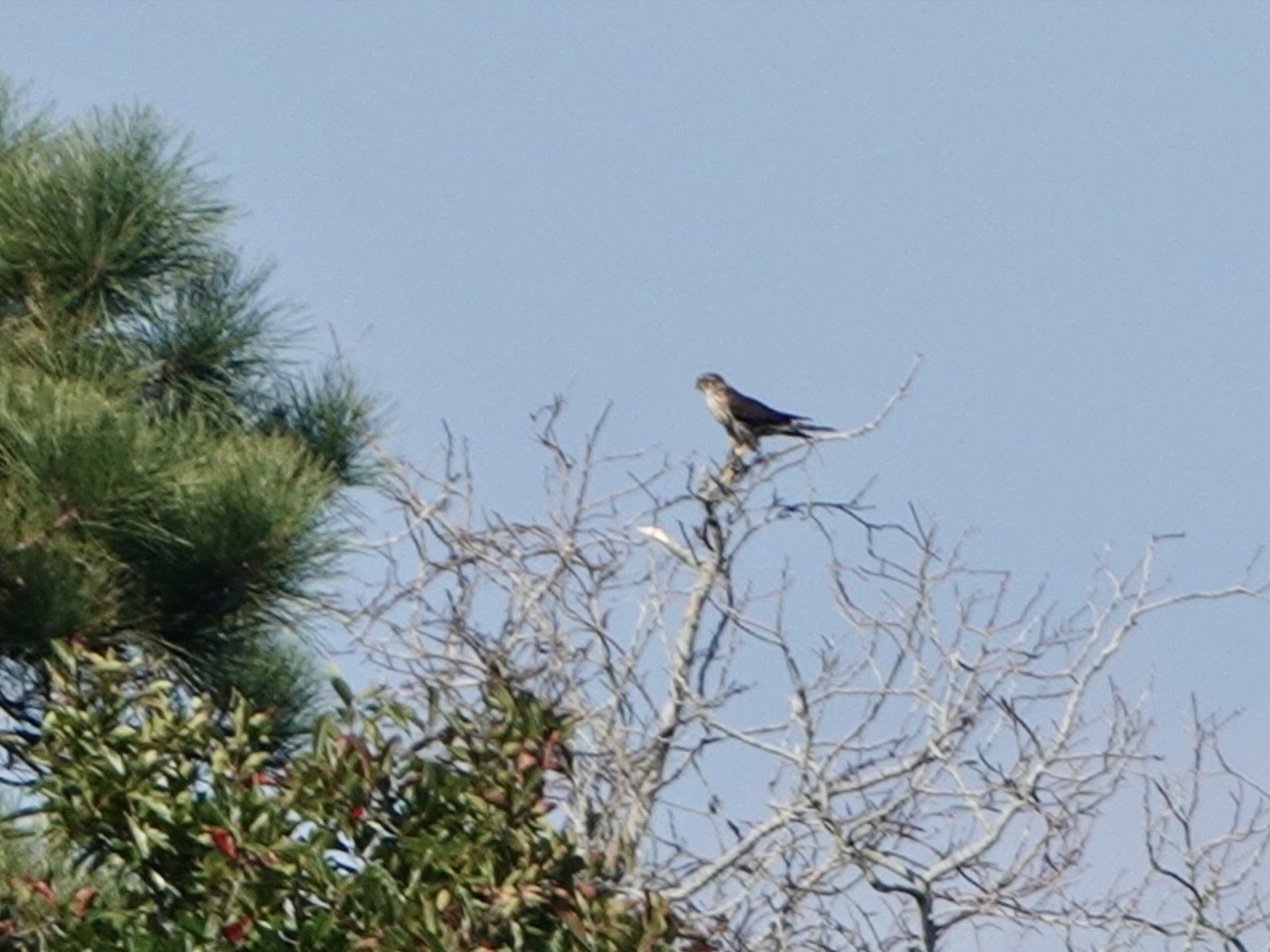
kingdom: Animalia
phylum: Chordata
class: Aves
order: Falconiformes
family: Falconidae
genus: Falco
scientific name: Falco columbarius
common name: Merlin
